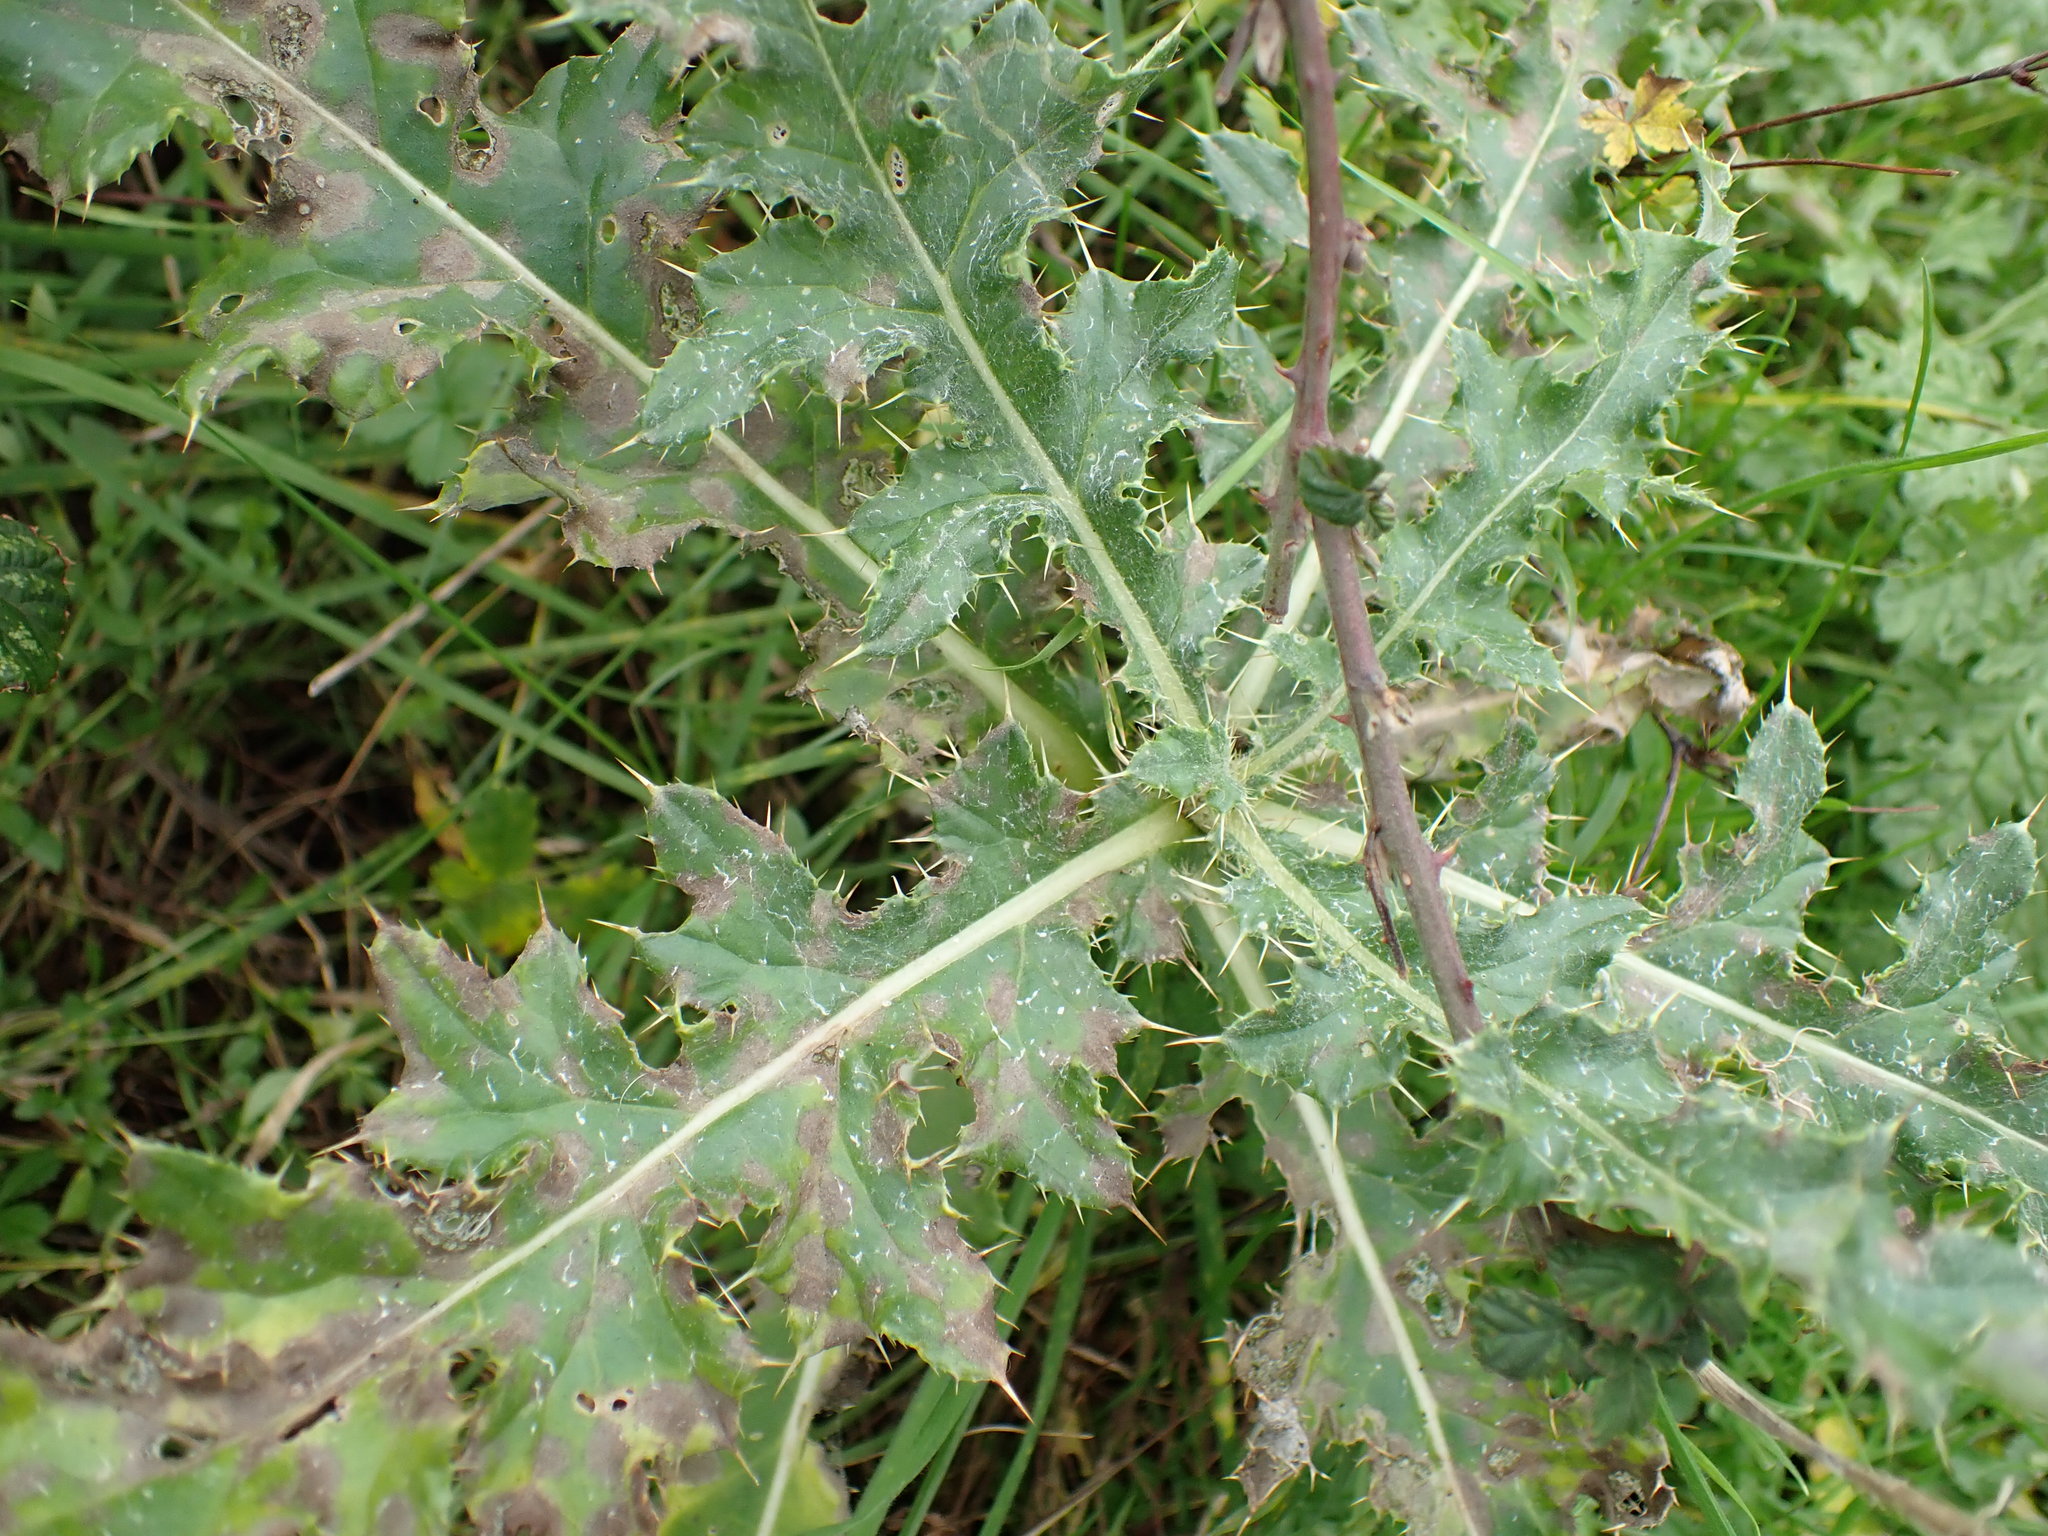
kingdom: Plantae
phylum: Tracheophyta
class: Magnoliopsida
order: Asterales
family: Asteraceae
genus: Cirsium
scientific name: Cirsium arvense
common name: Creeping thistle
